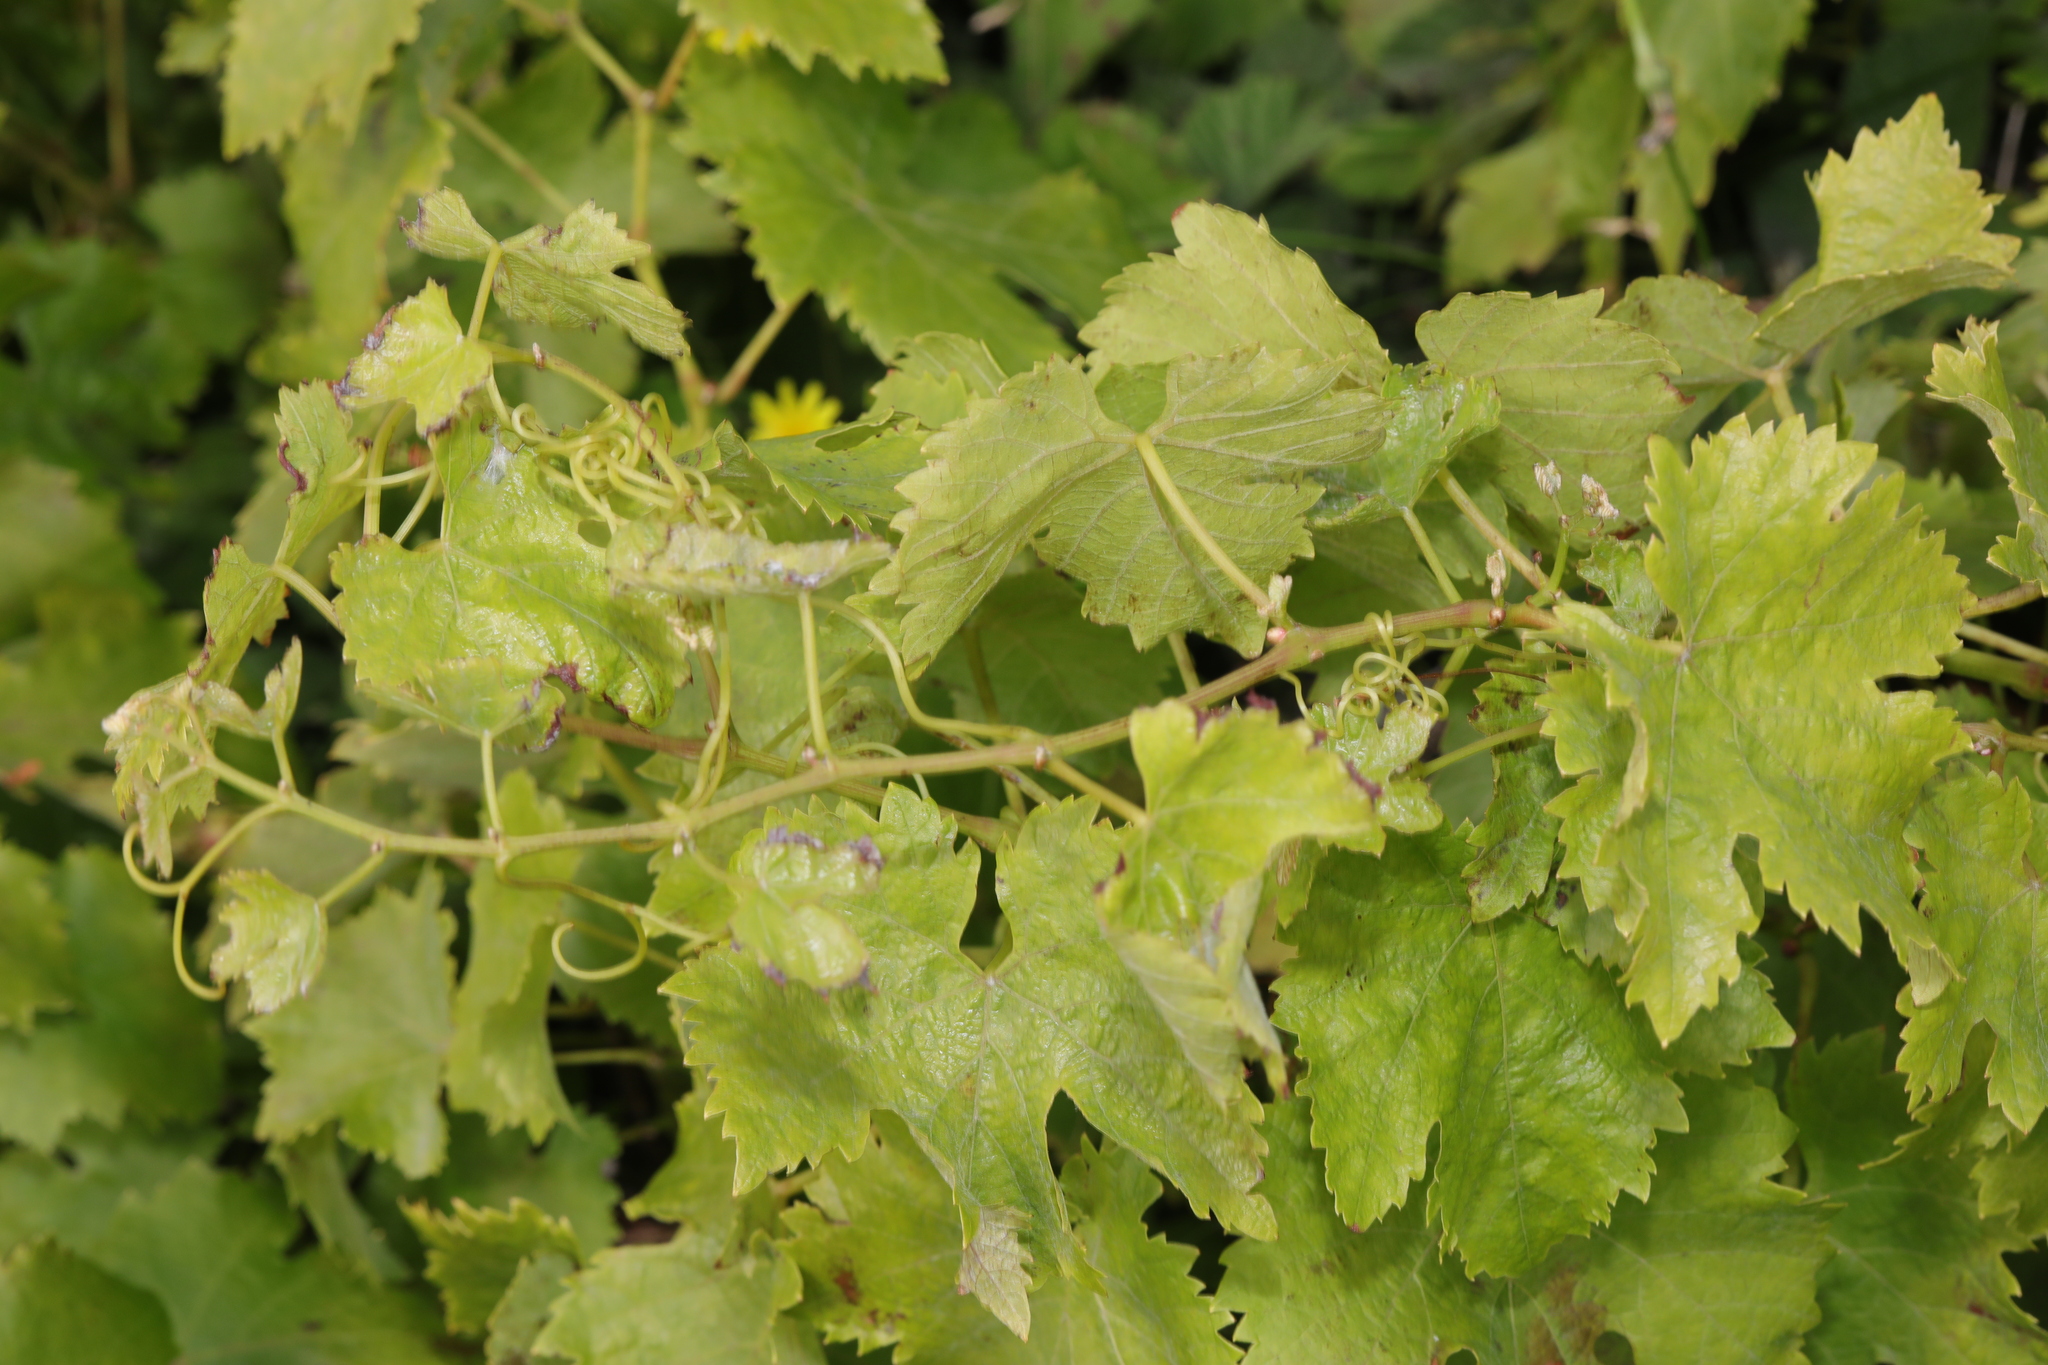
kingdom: Plantae
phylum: Tracheophyta
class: Magnoliopsida
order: Vitales
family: Vitaceae
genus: Vitis
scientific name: Vitis vinifera
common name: Grape-vine
